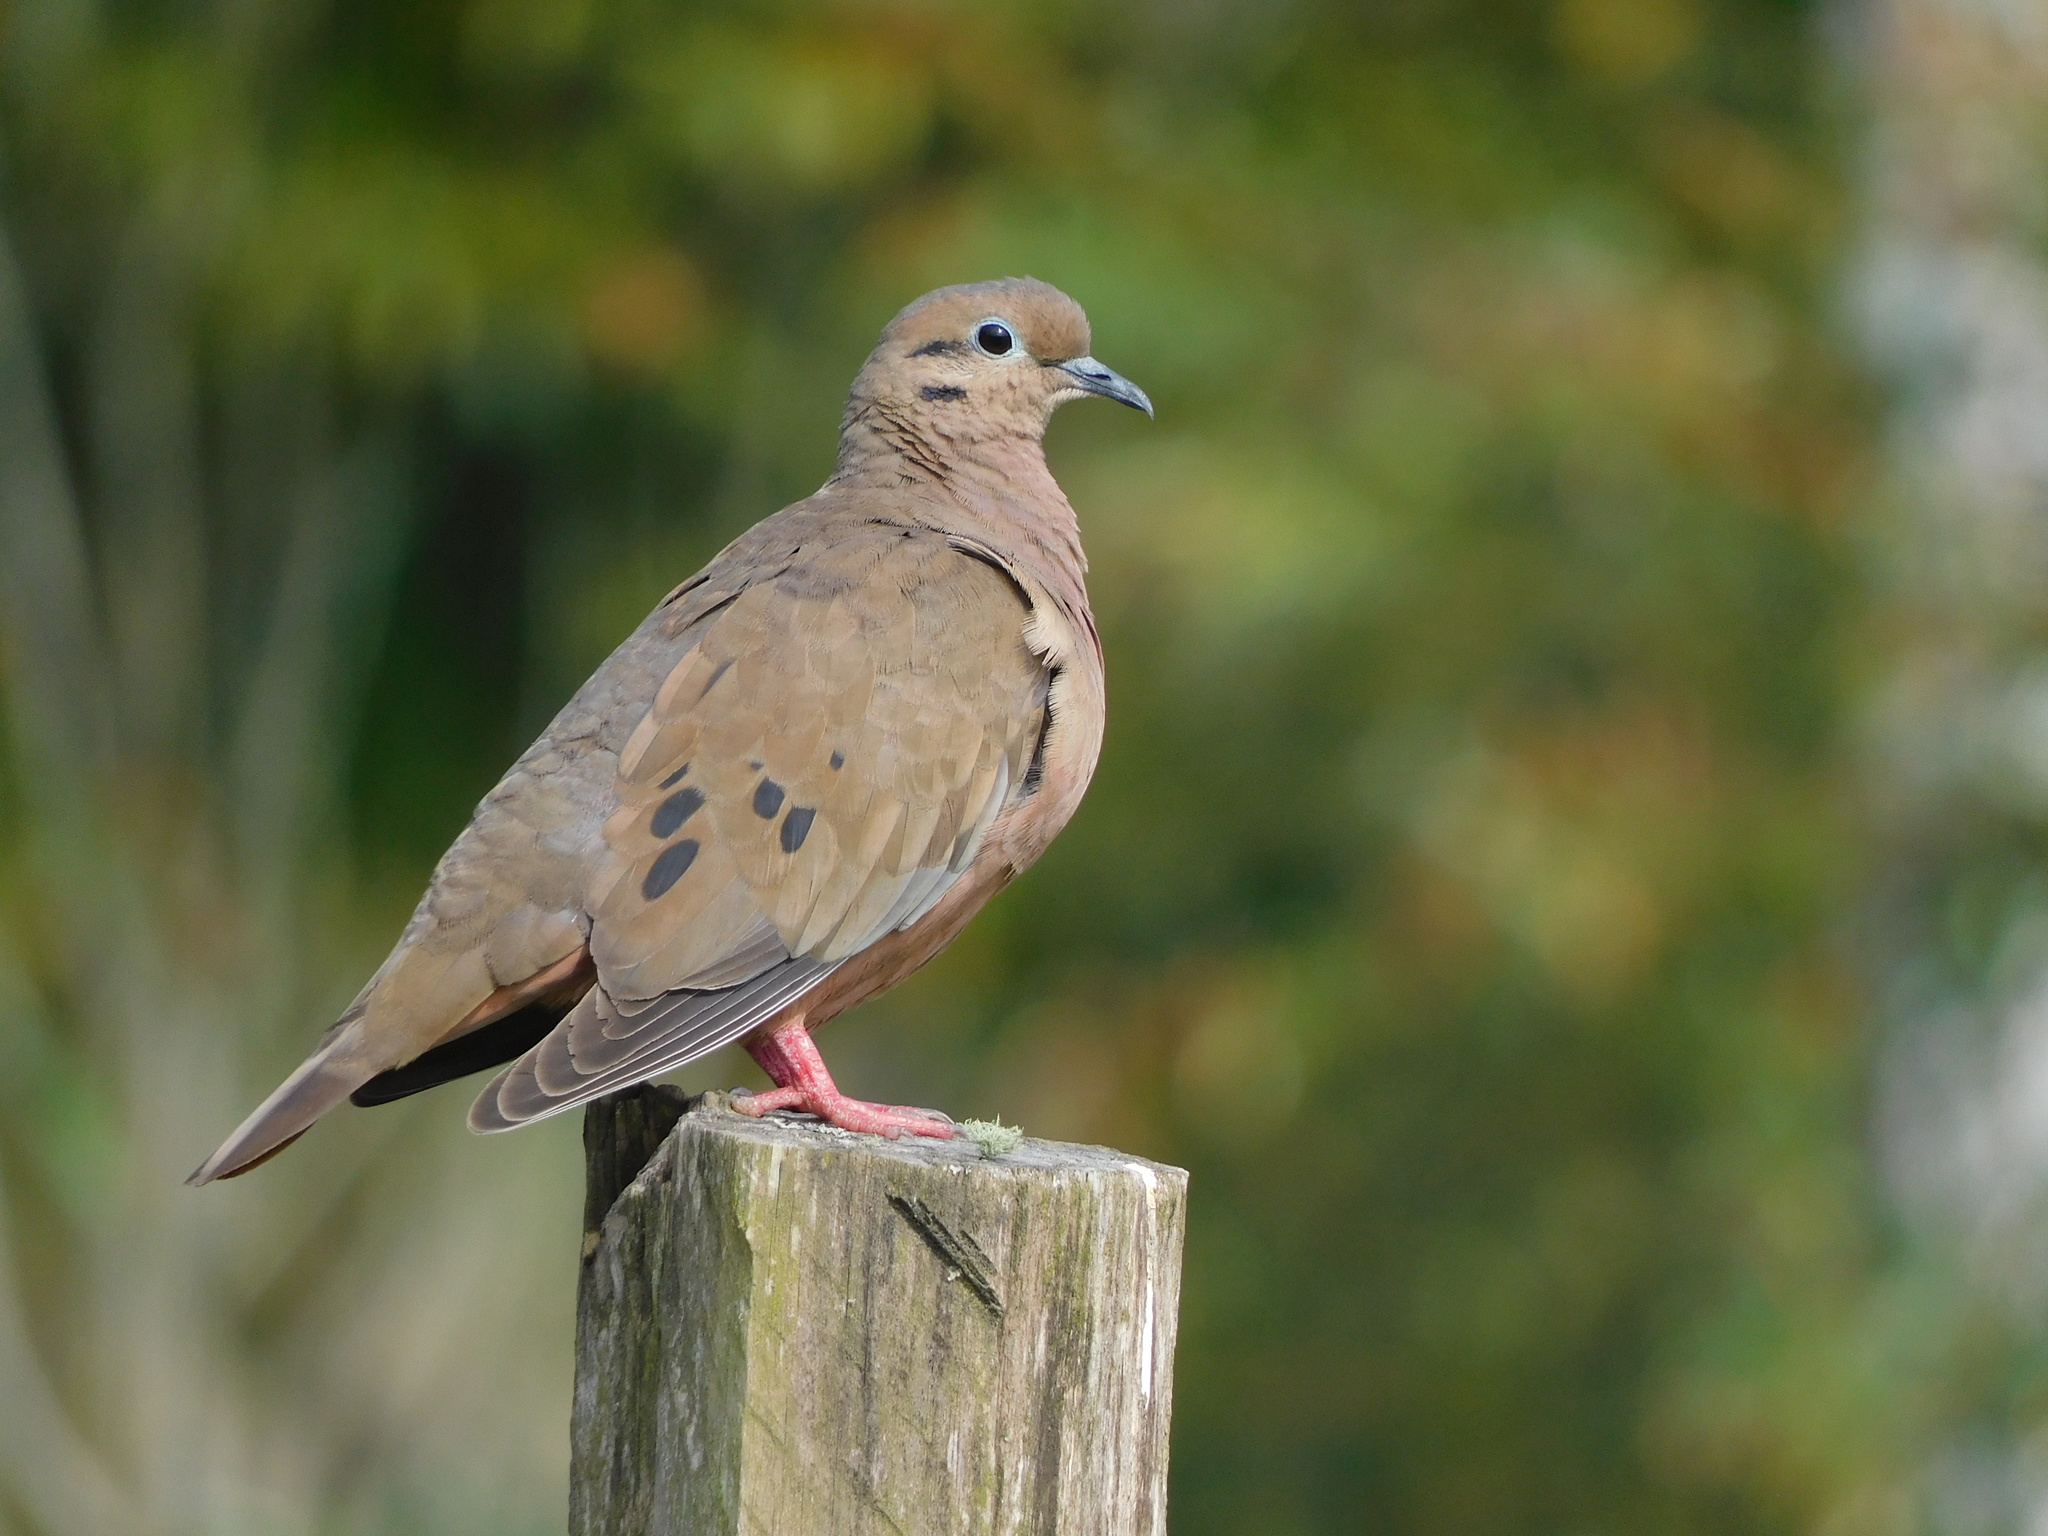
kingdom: Animalia
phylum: Chordata
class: Aves
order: Columbiformes
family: Columbidae
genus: Zenaida
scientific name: Zenaida auriculata
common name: Eared dove
